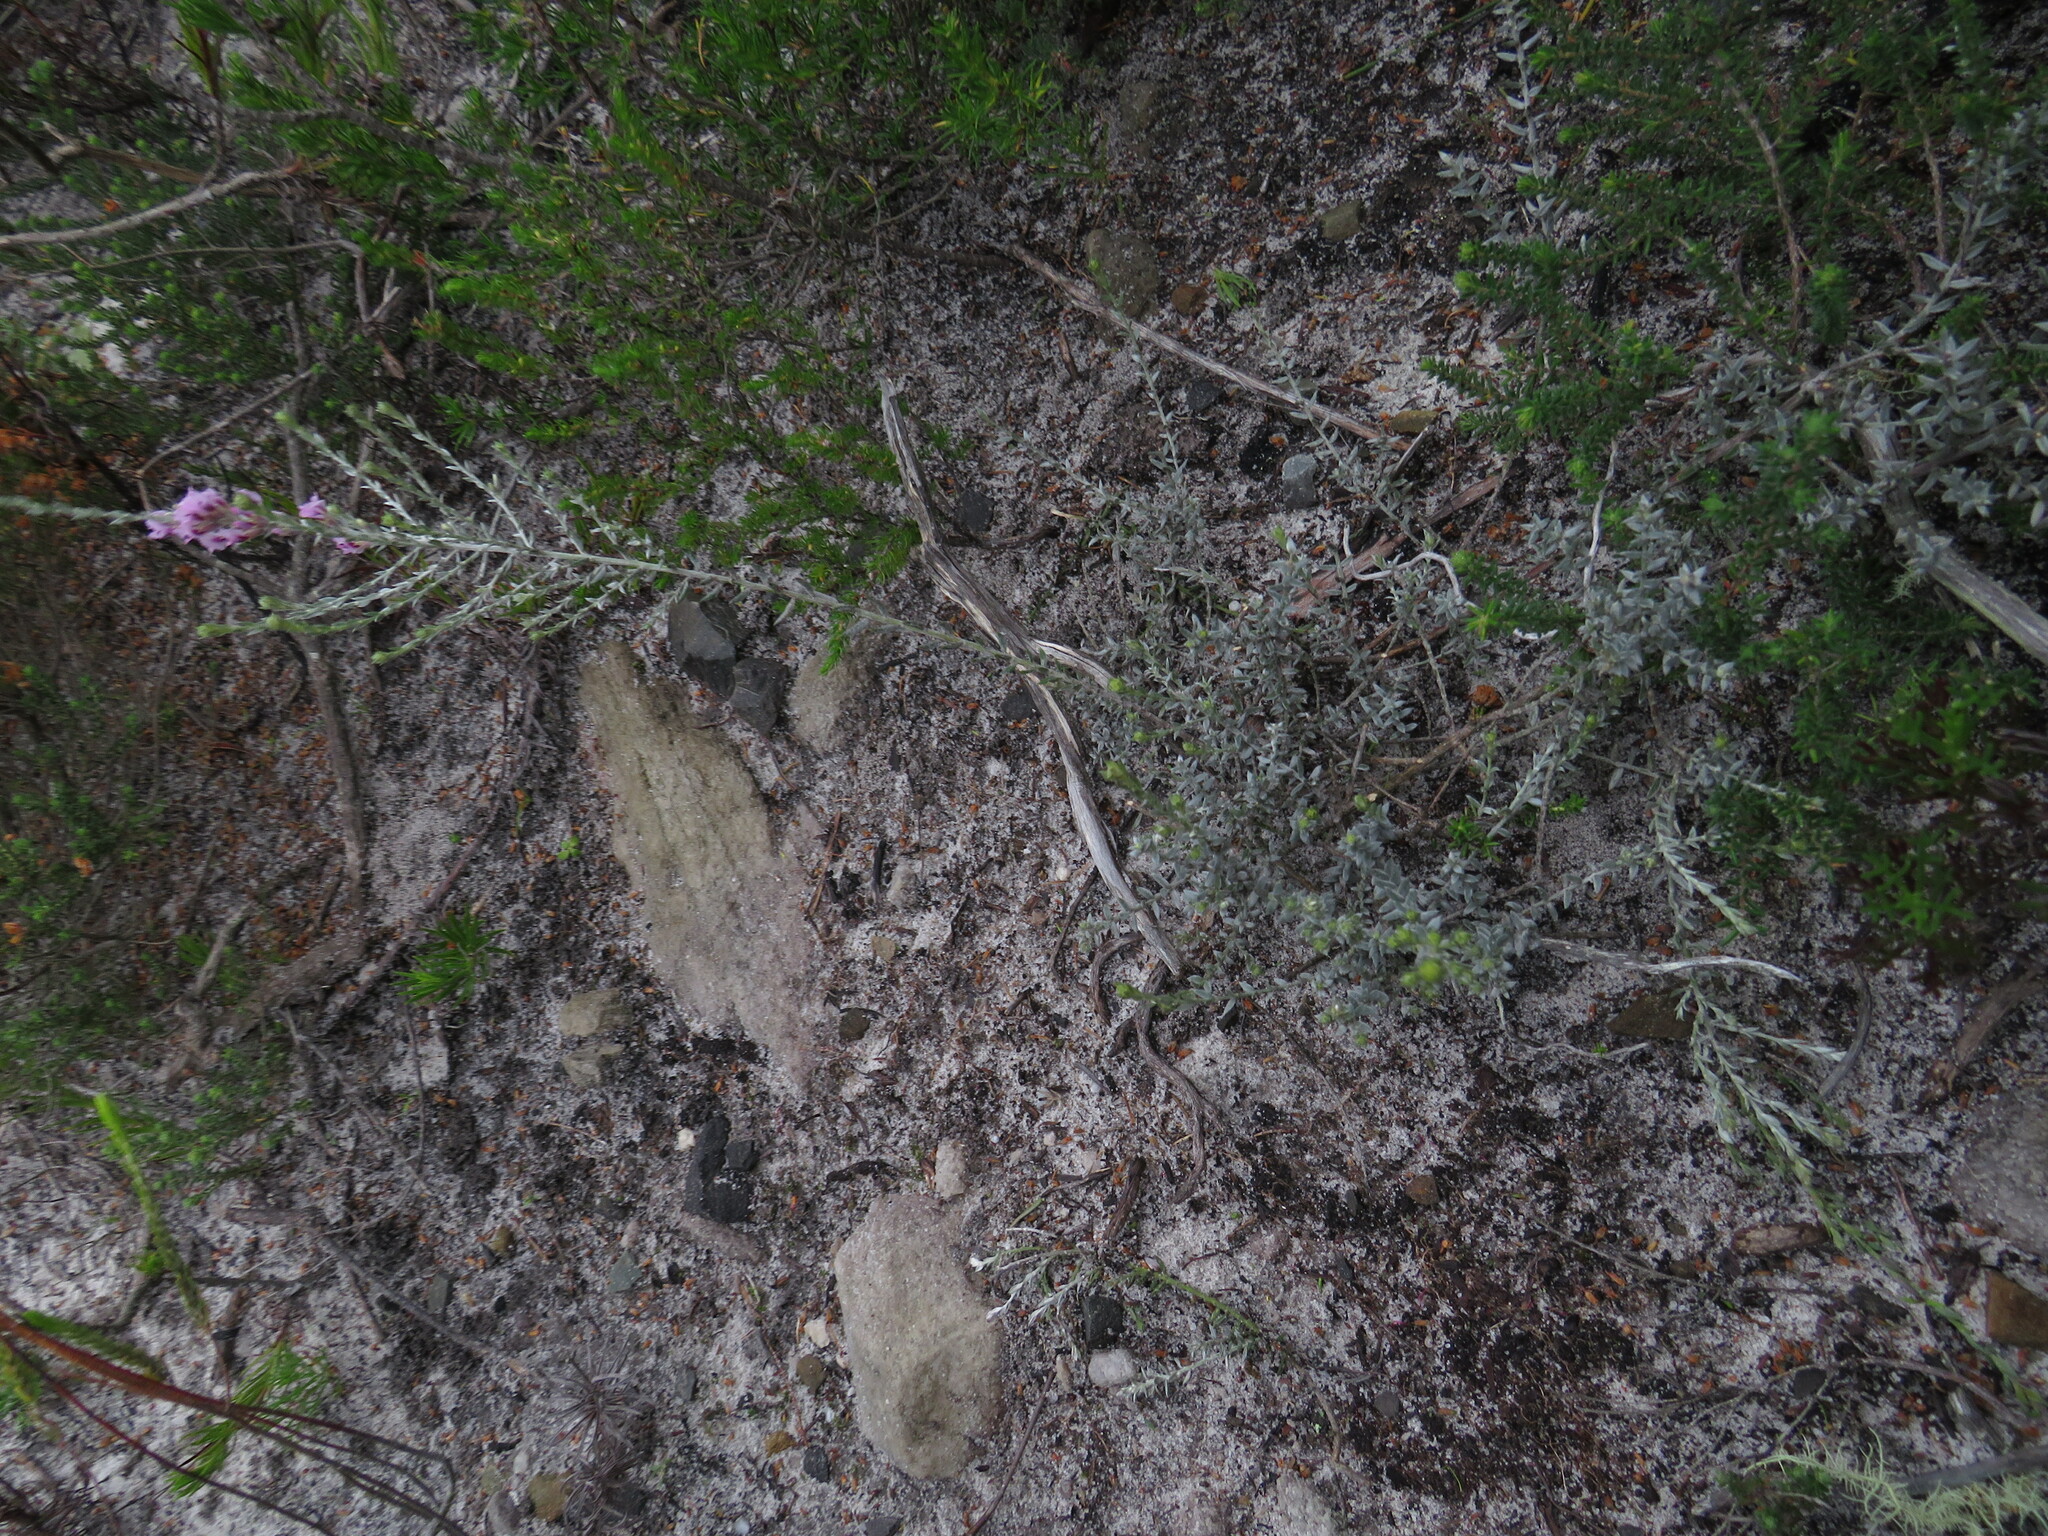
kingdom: Plantae
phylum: Tracheophyta
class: Magnoliopsida
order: Fabales
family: Fabaceae
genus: Amphithalea
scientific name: Amphithalea ericifolia
